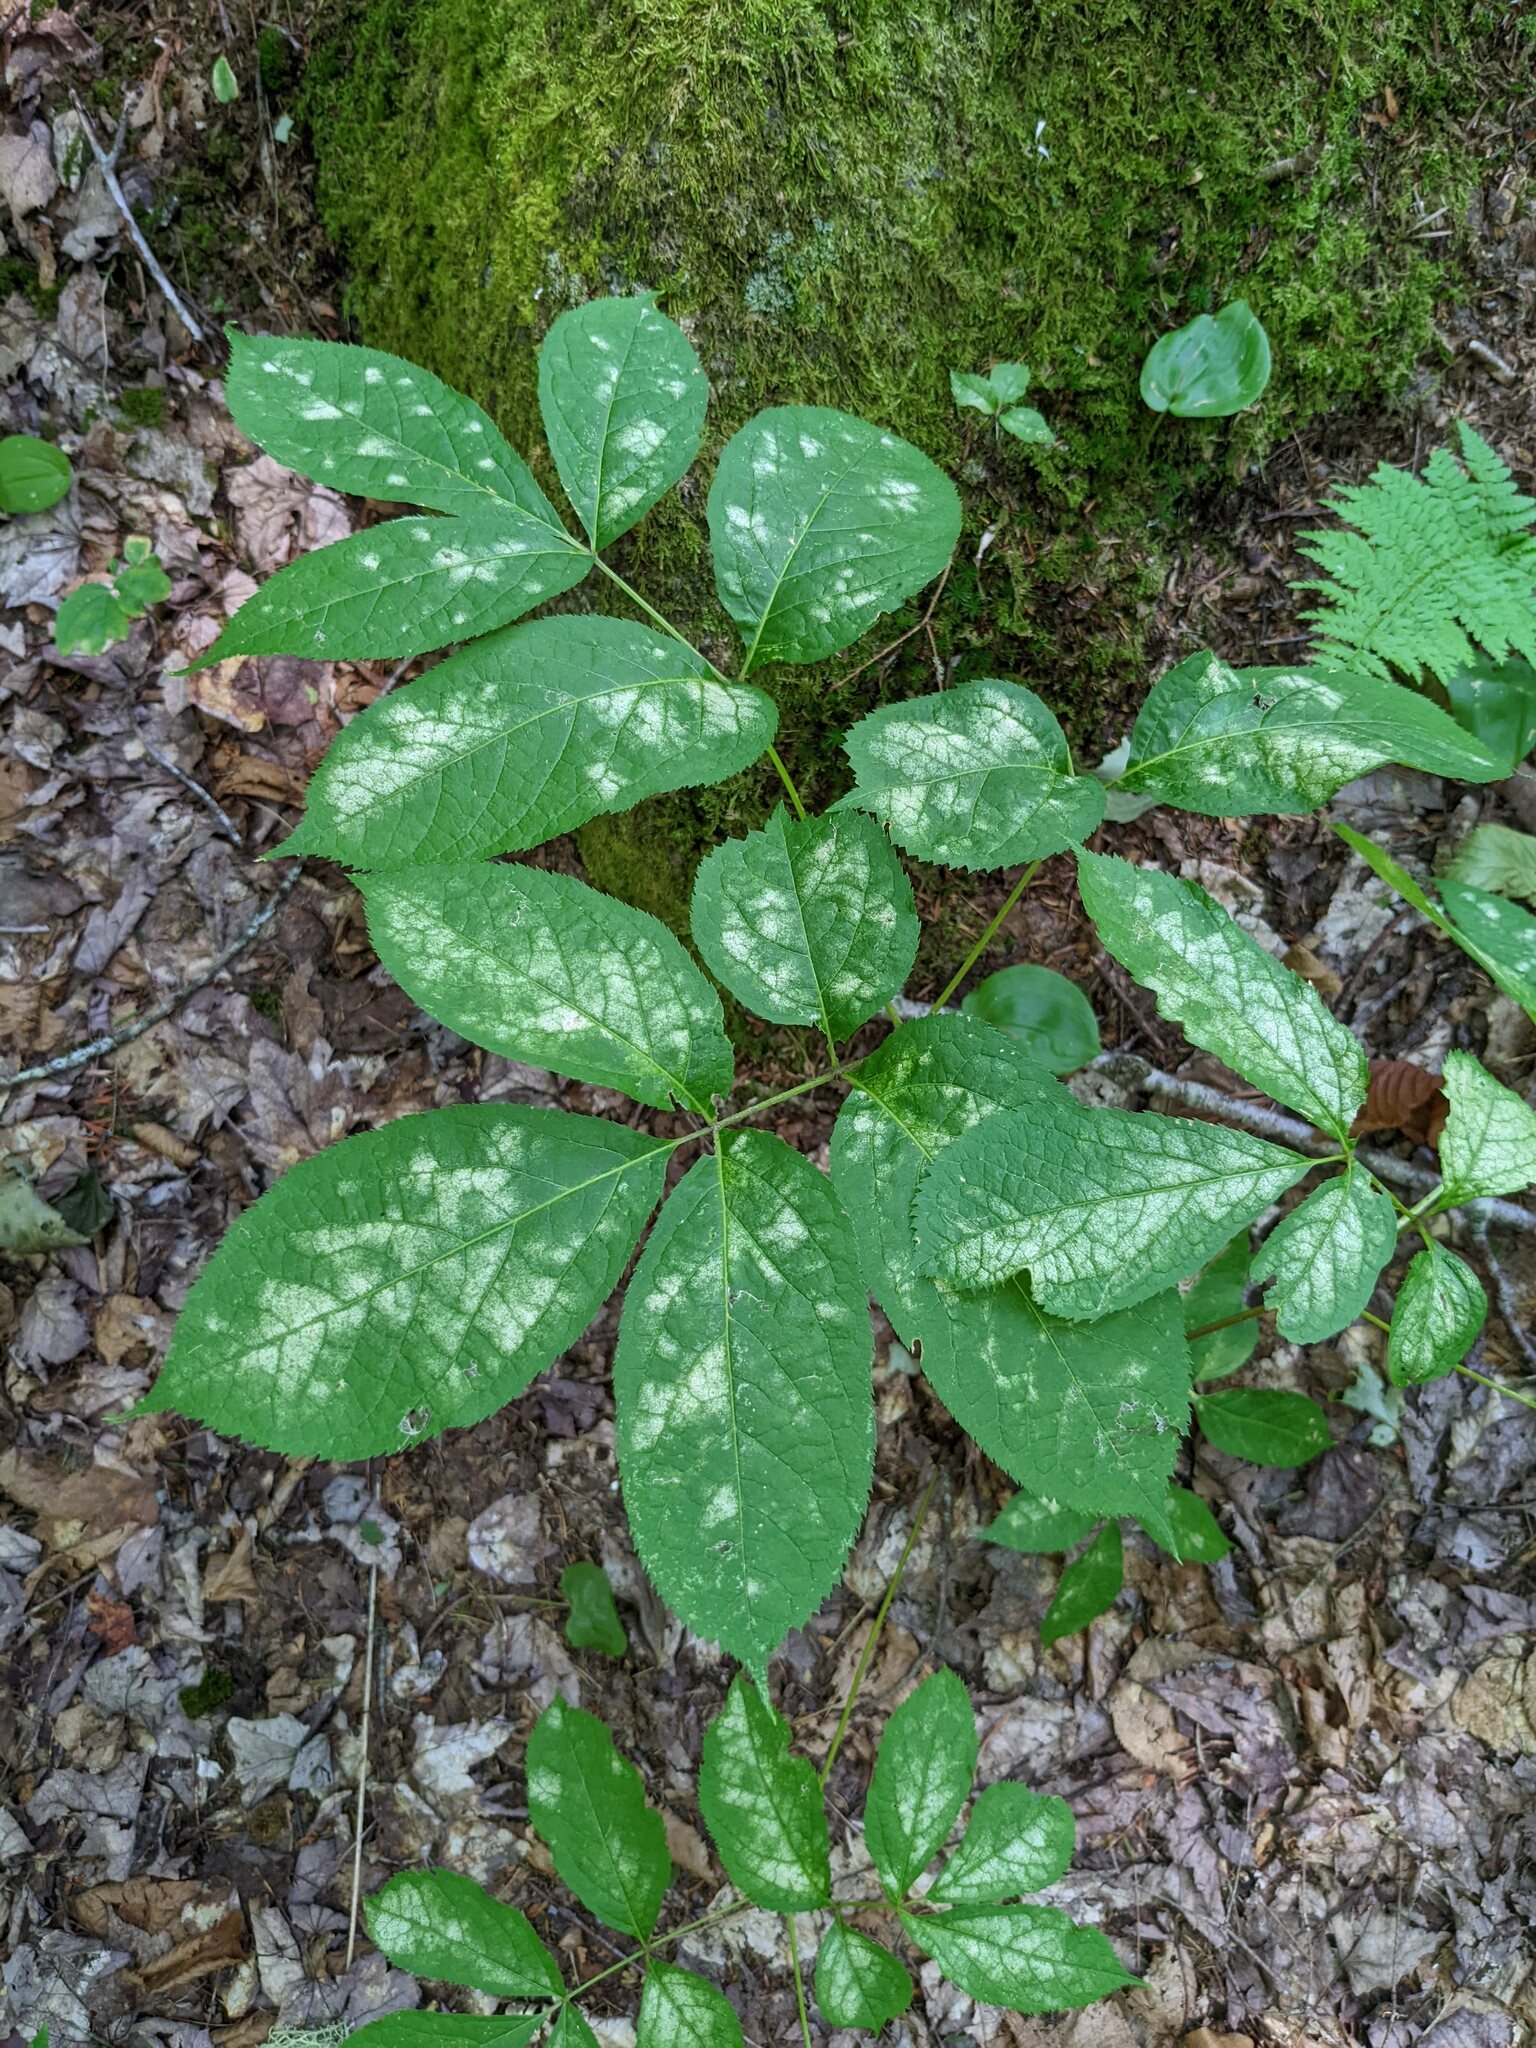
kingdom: Plantae
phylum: Tracheophyta
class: Magnoliopsida
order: Apiales
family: Araliaceae
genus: Aralia
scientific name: Aralia nudicaulis
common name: Wild sarsaparilla
